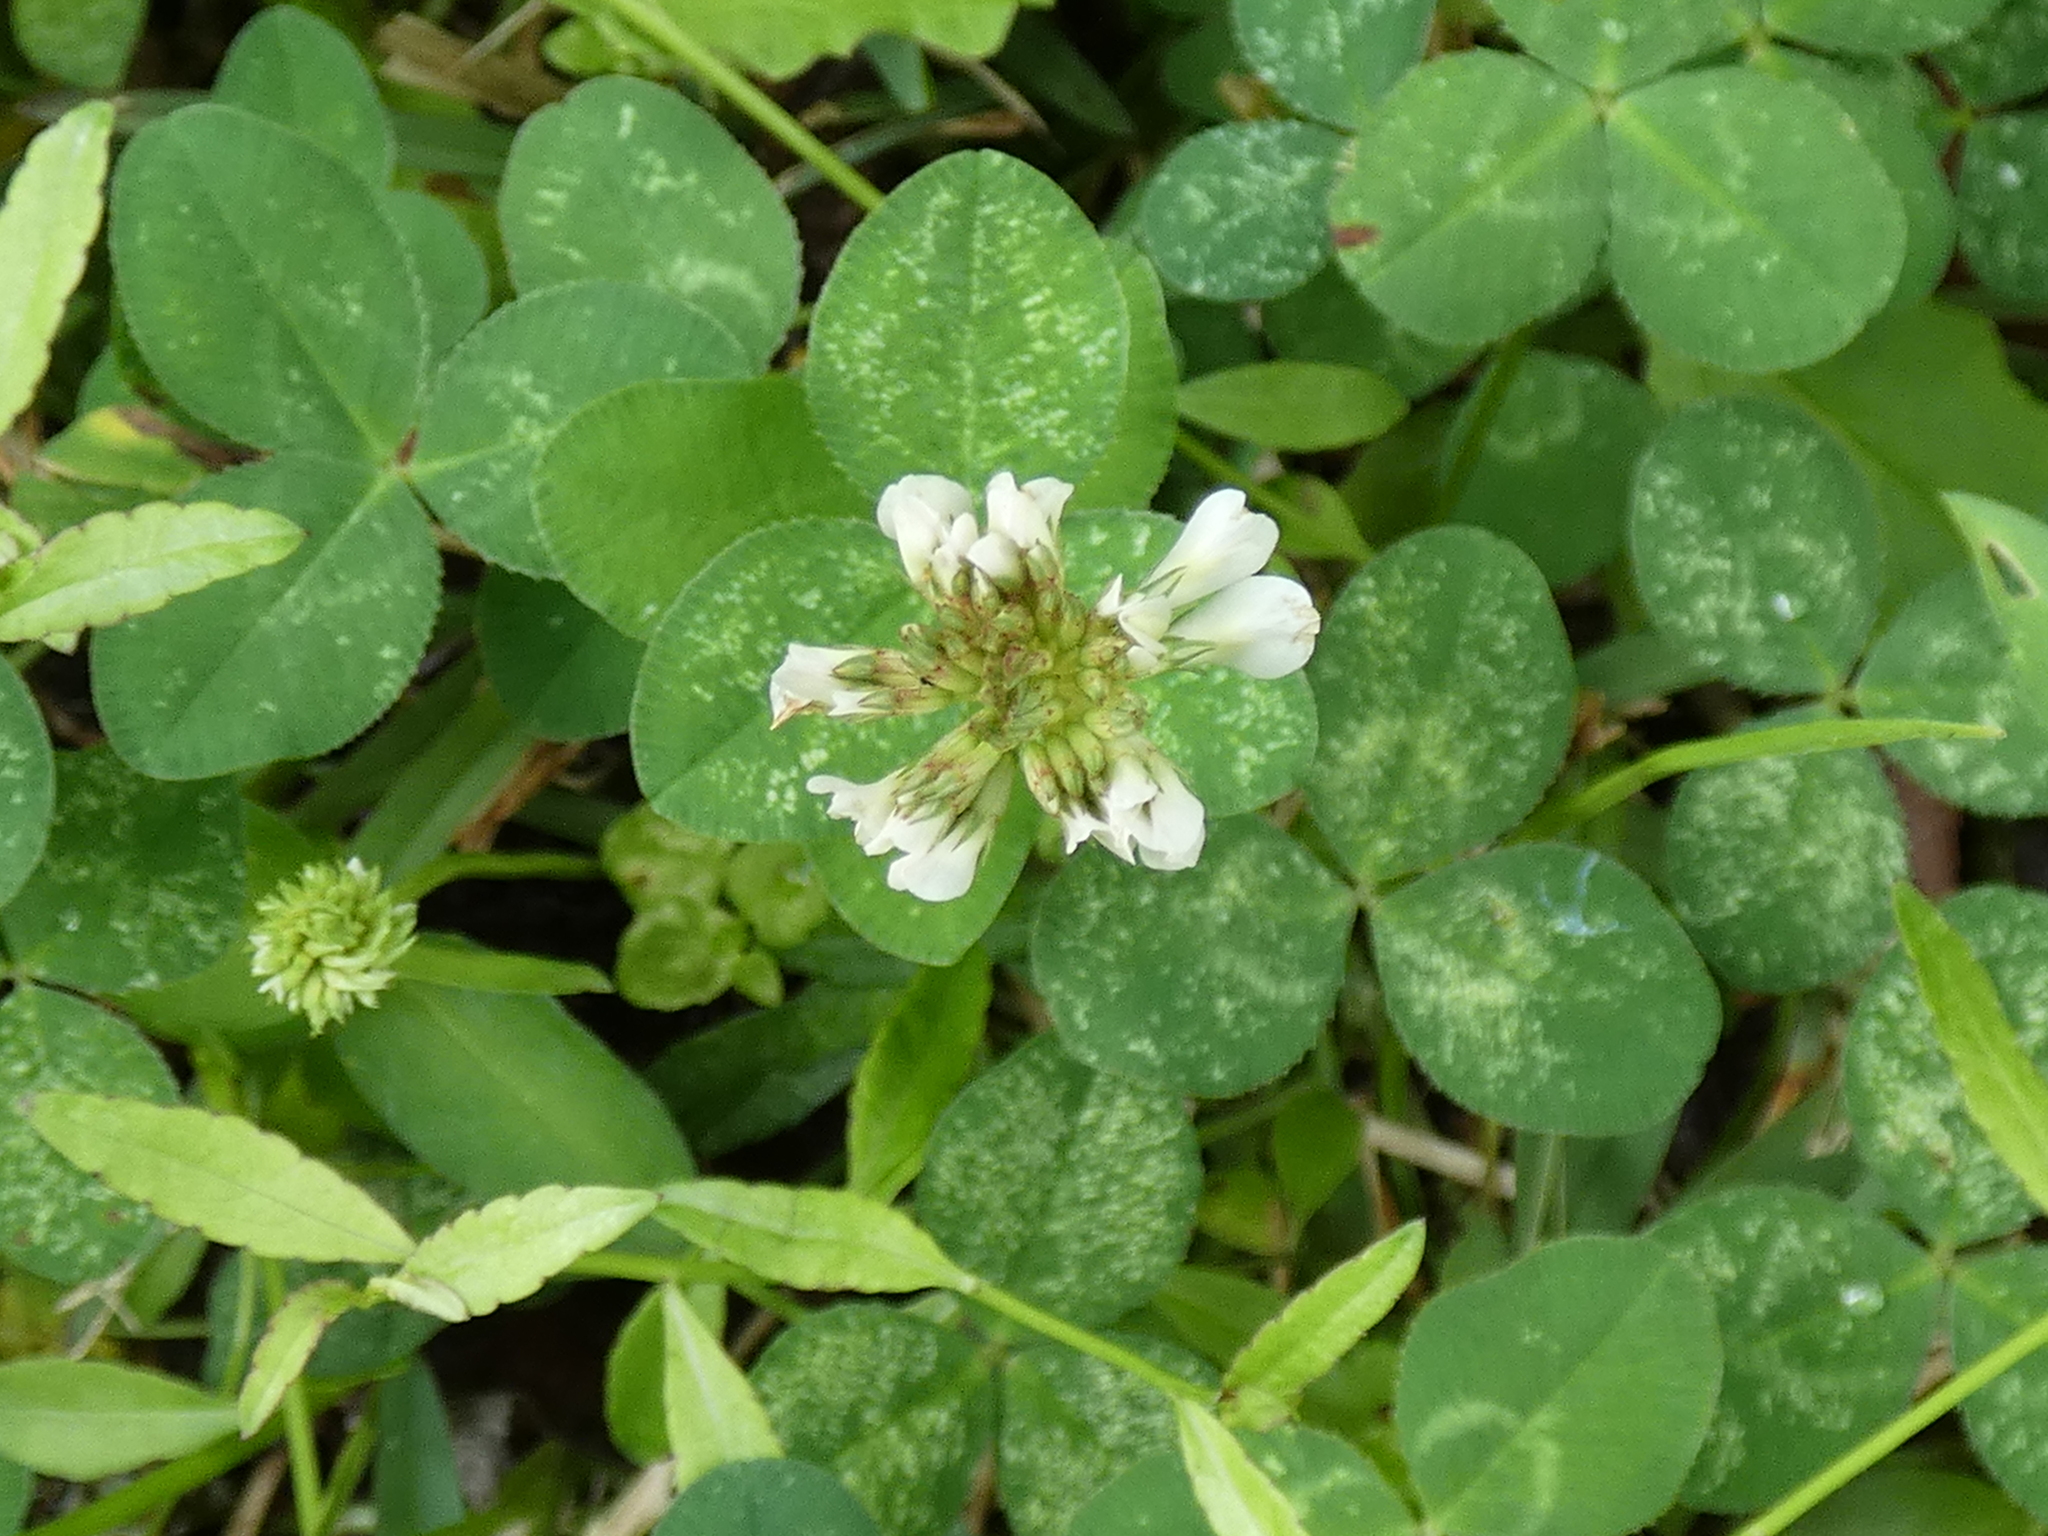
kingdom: Animalia
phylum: Arthropoda
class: Insecta
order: Lepidoptera
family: Gracillariidae
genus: Porphyrosela
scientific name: Porphyrosela minuta
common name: Leaf miner moth
